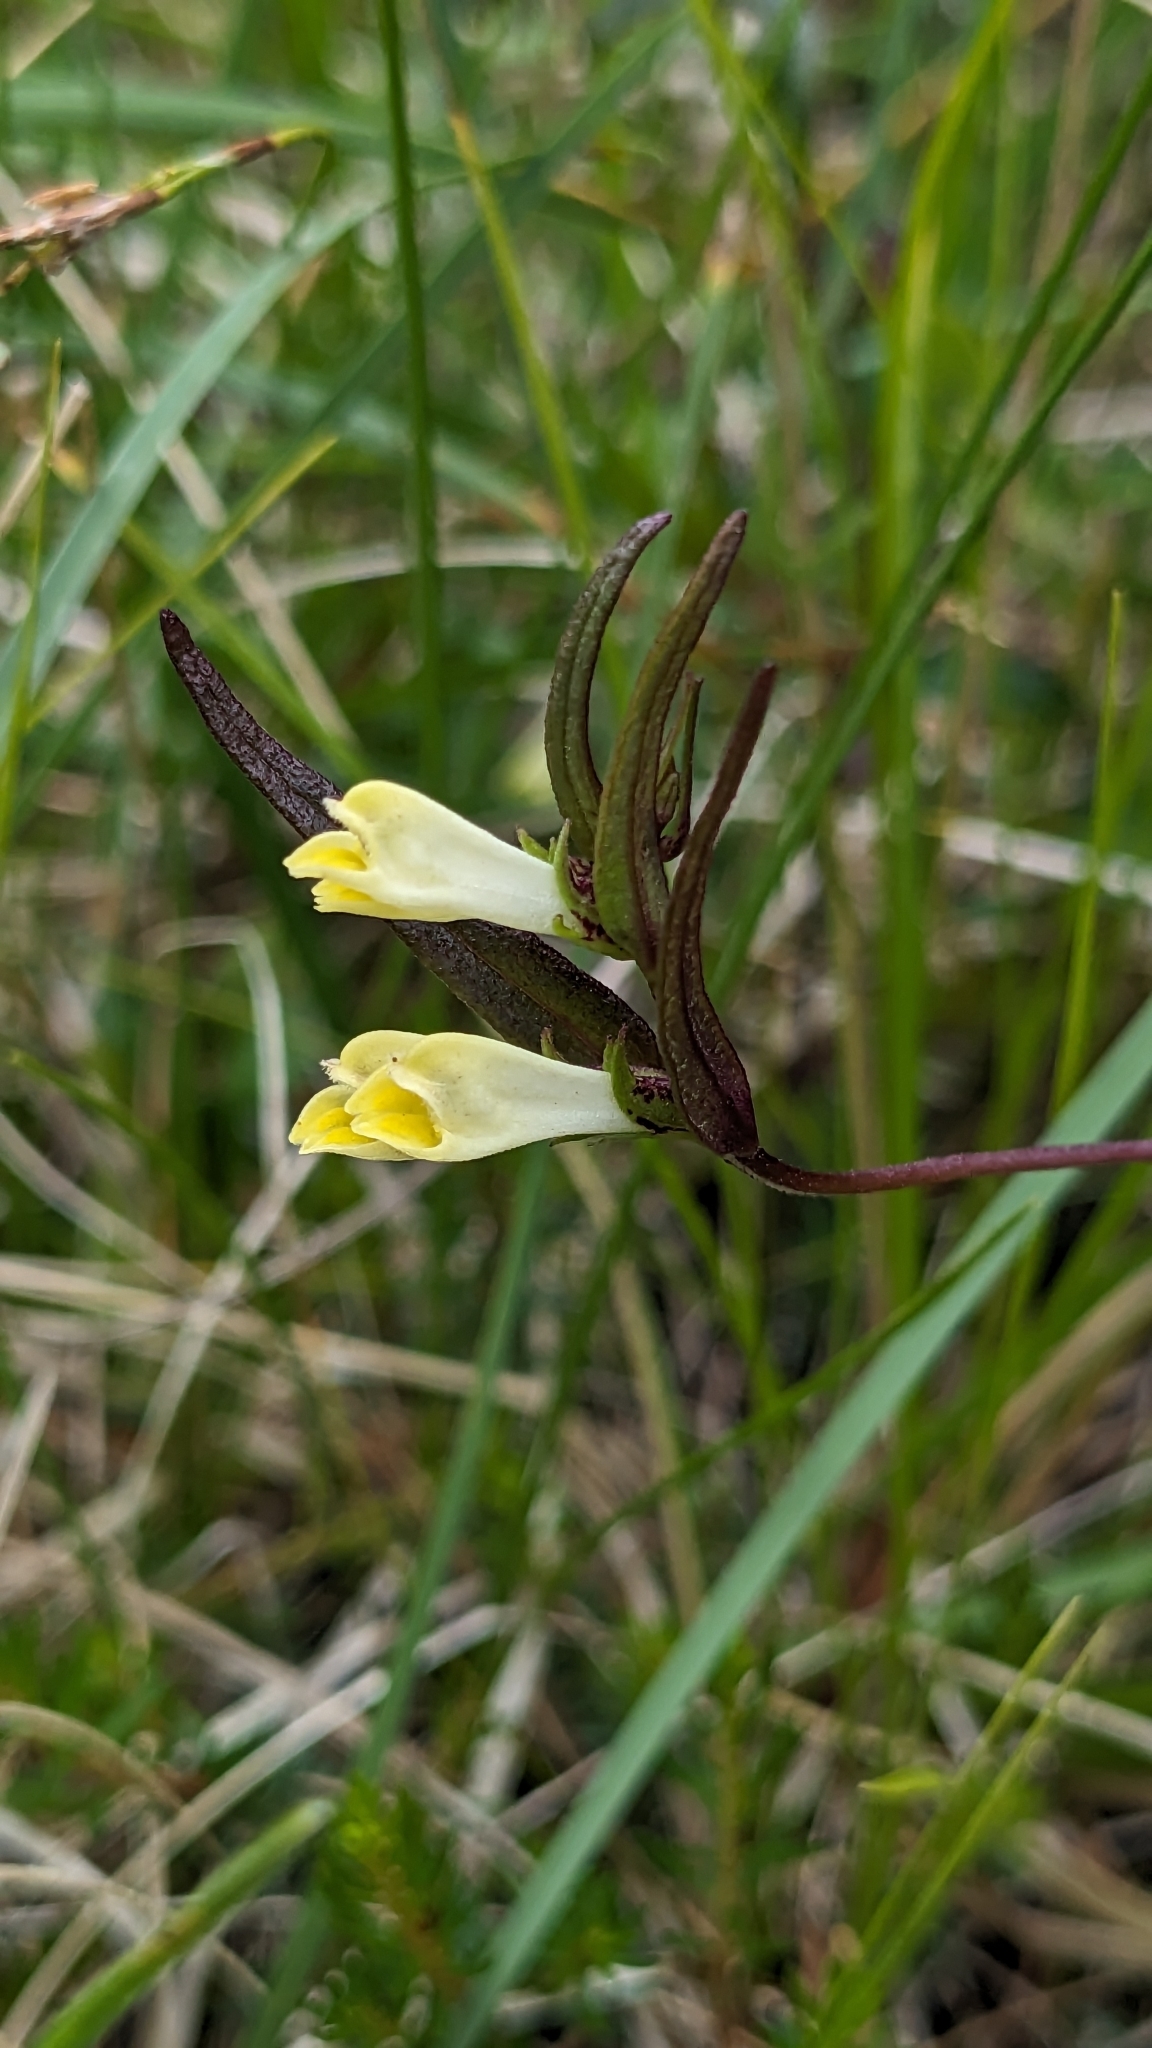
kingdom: Plantae
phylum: Tracheophyta
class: Magnoliopsida
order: Lamiales
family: Orobanchaceae
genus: Melampyrum
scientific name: Melampyrum pratense
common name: Common cow-wheat
